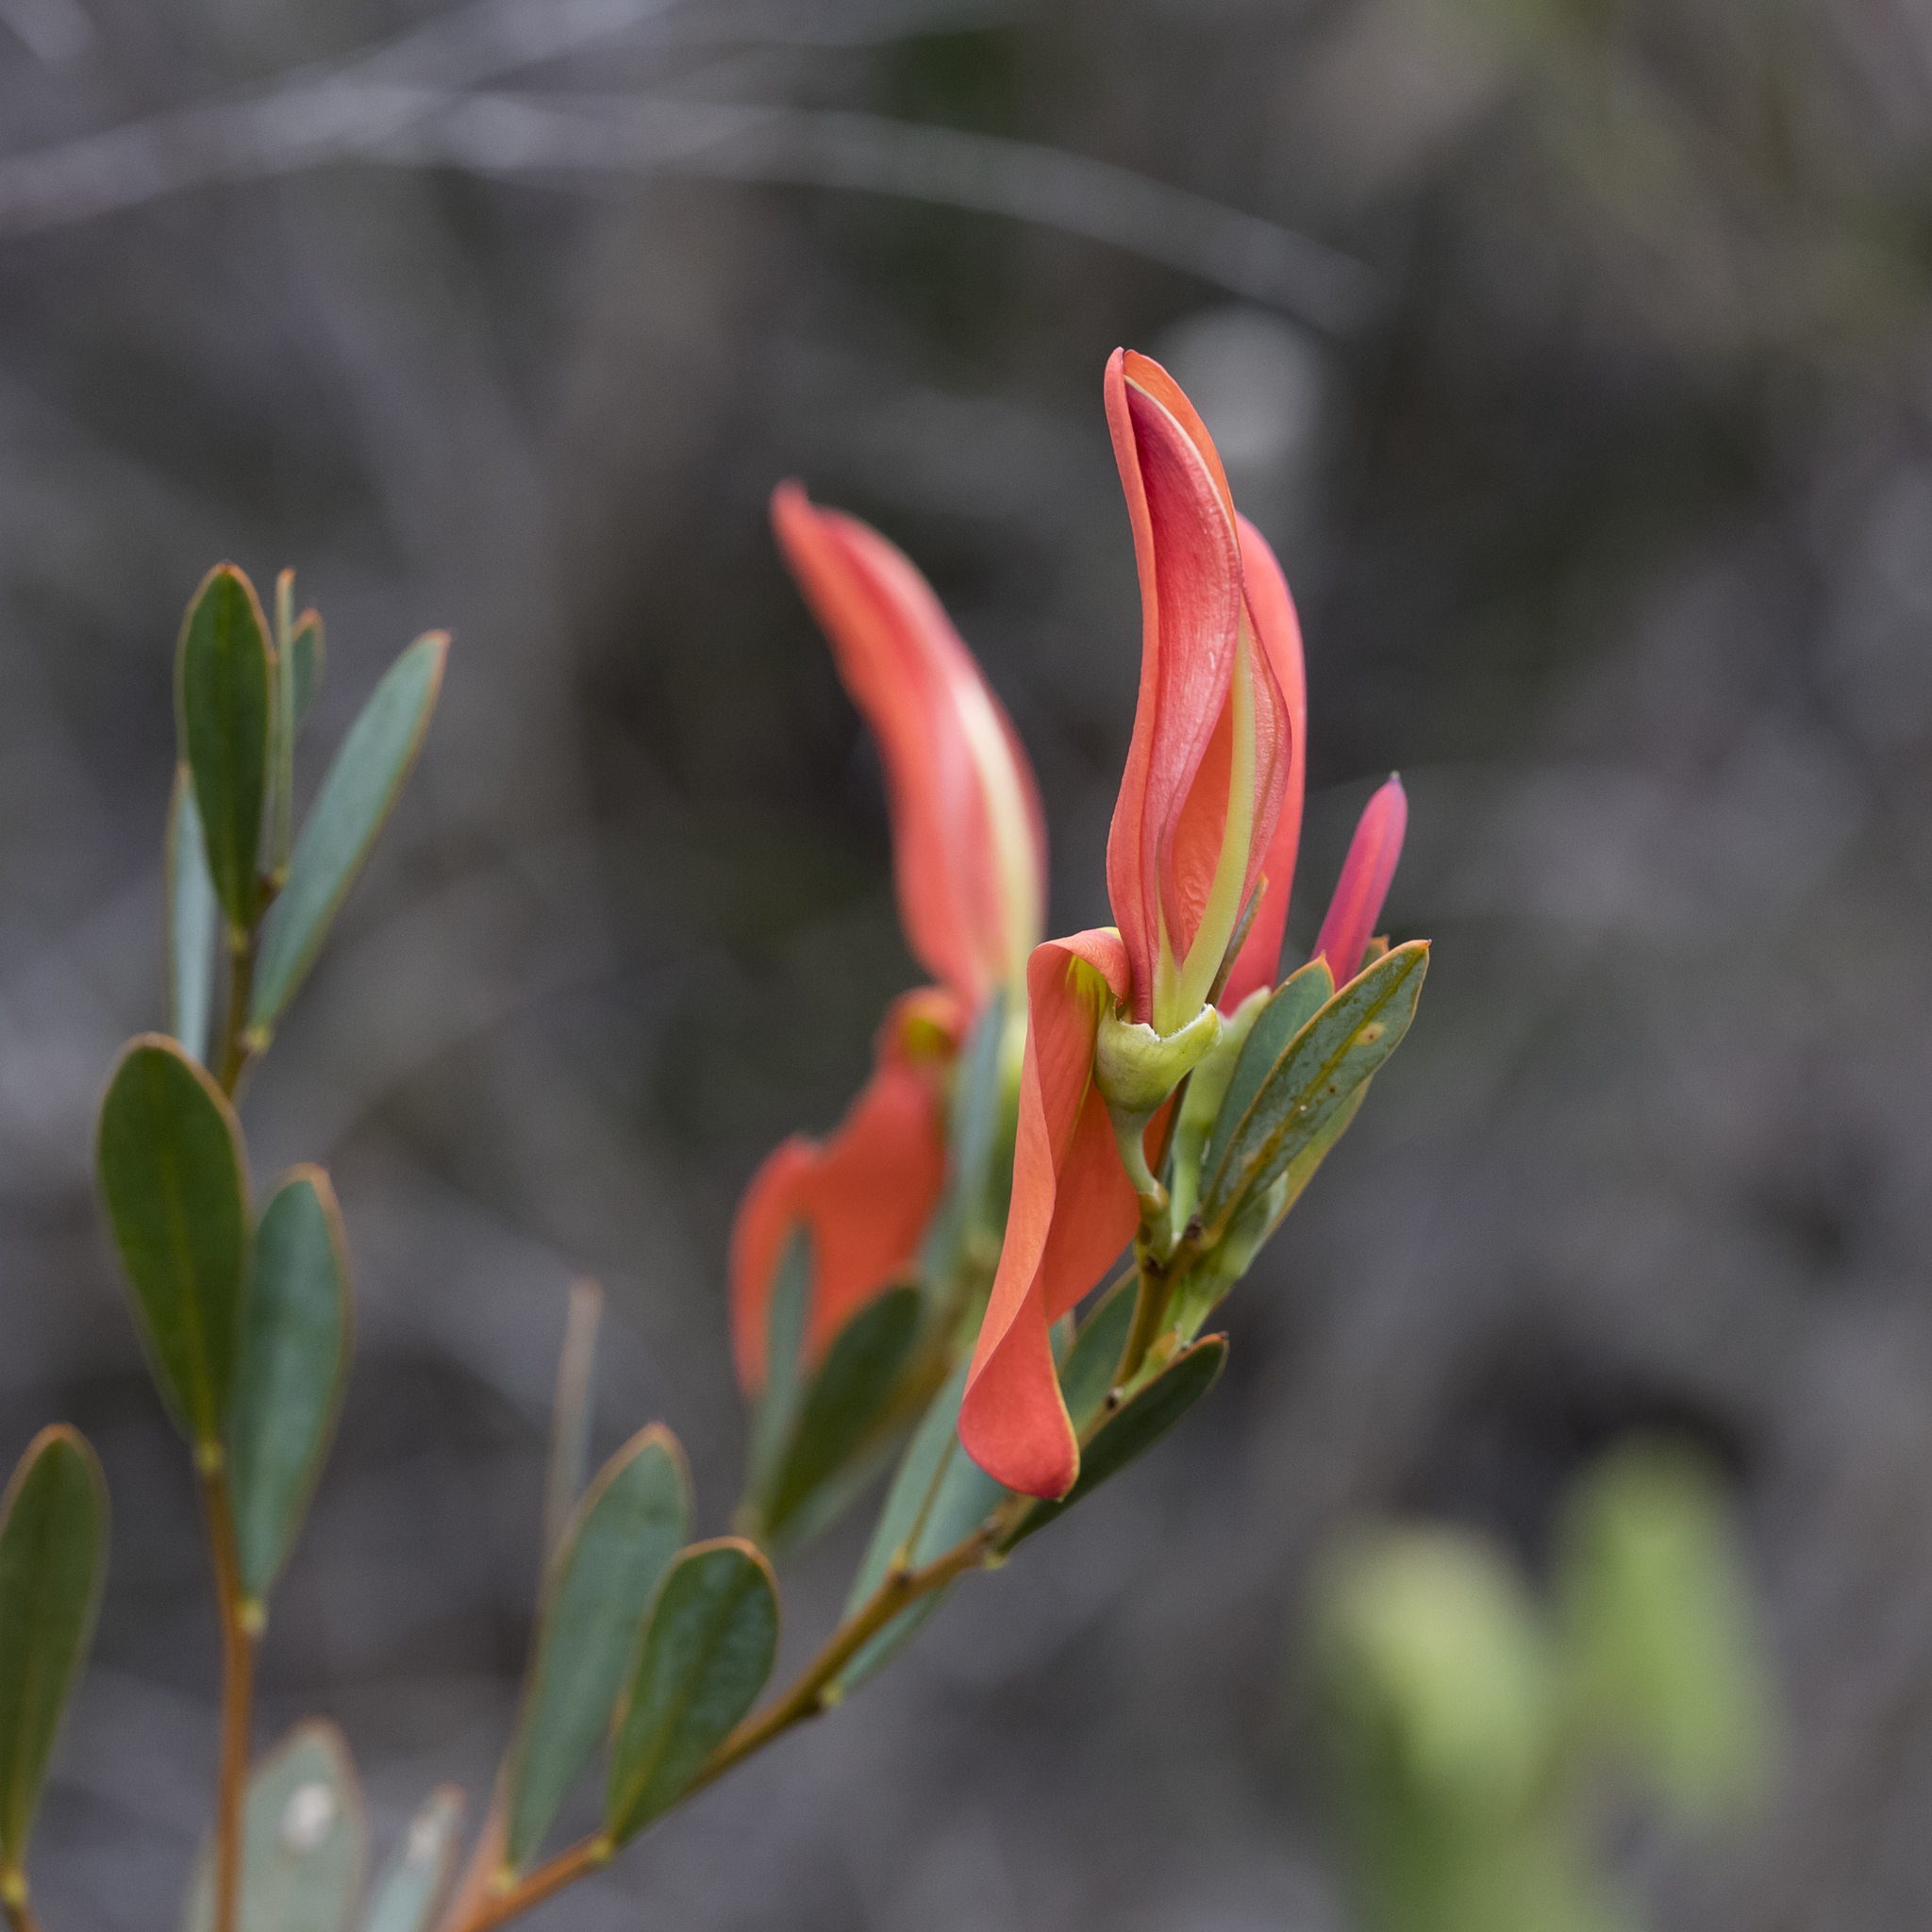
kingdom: Plantae
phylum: Tracheophyta
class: Magnoliopsida
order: Fabales
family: Fabaceae
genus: Templetonia
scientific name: Templetonia retusa
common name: Cockies'-tongue
